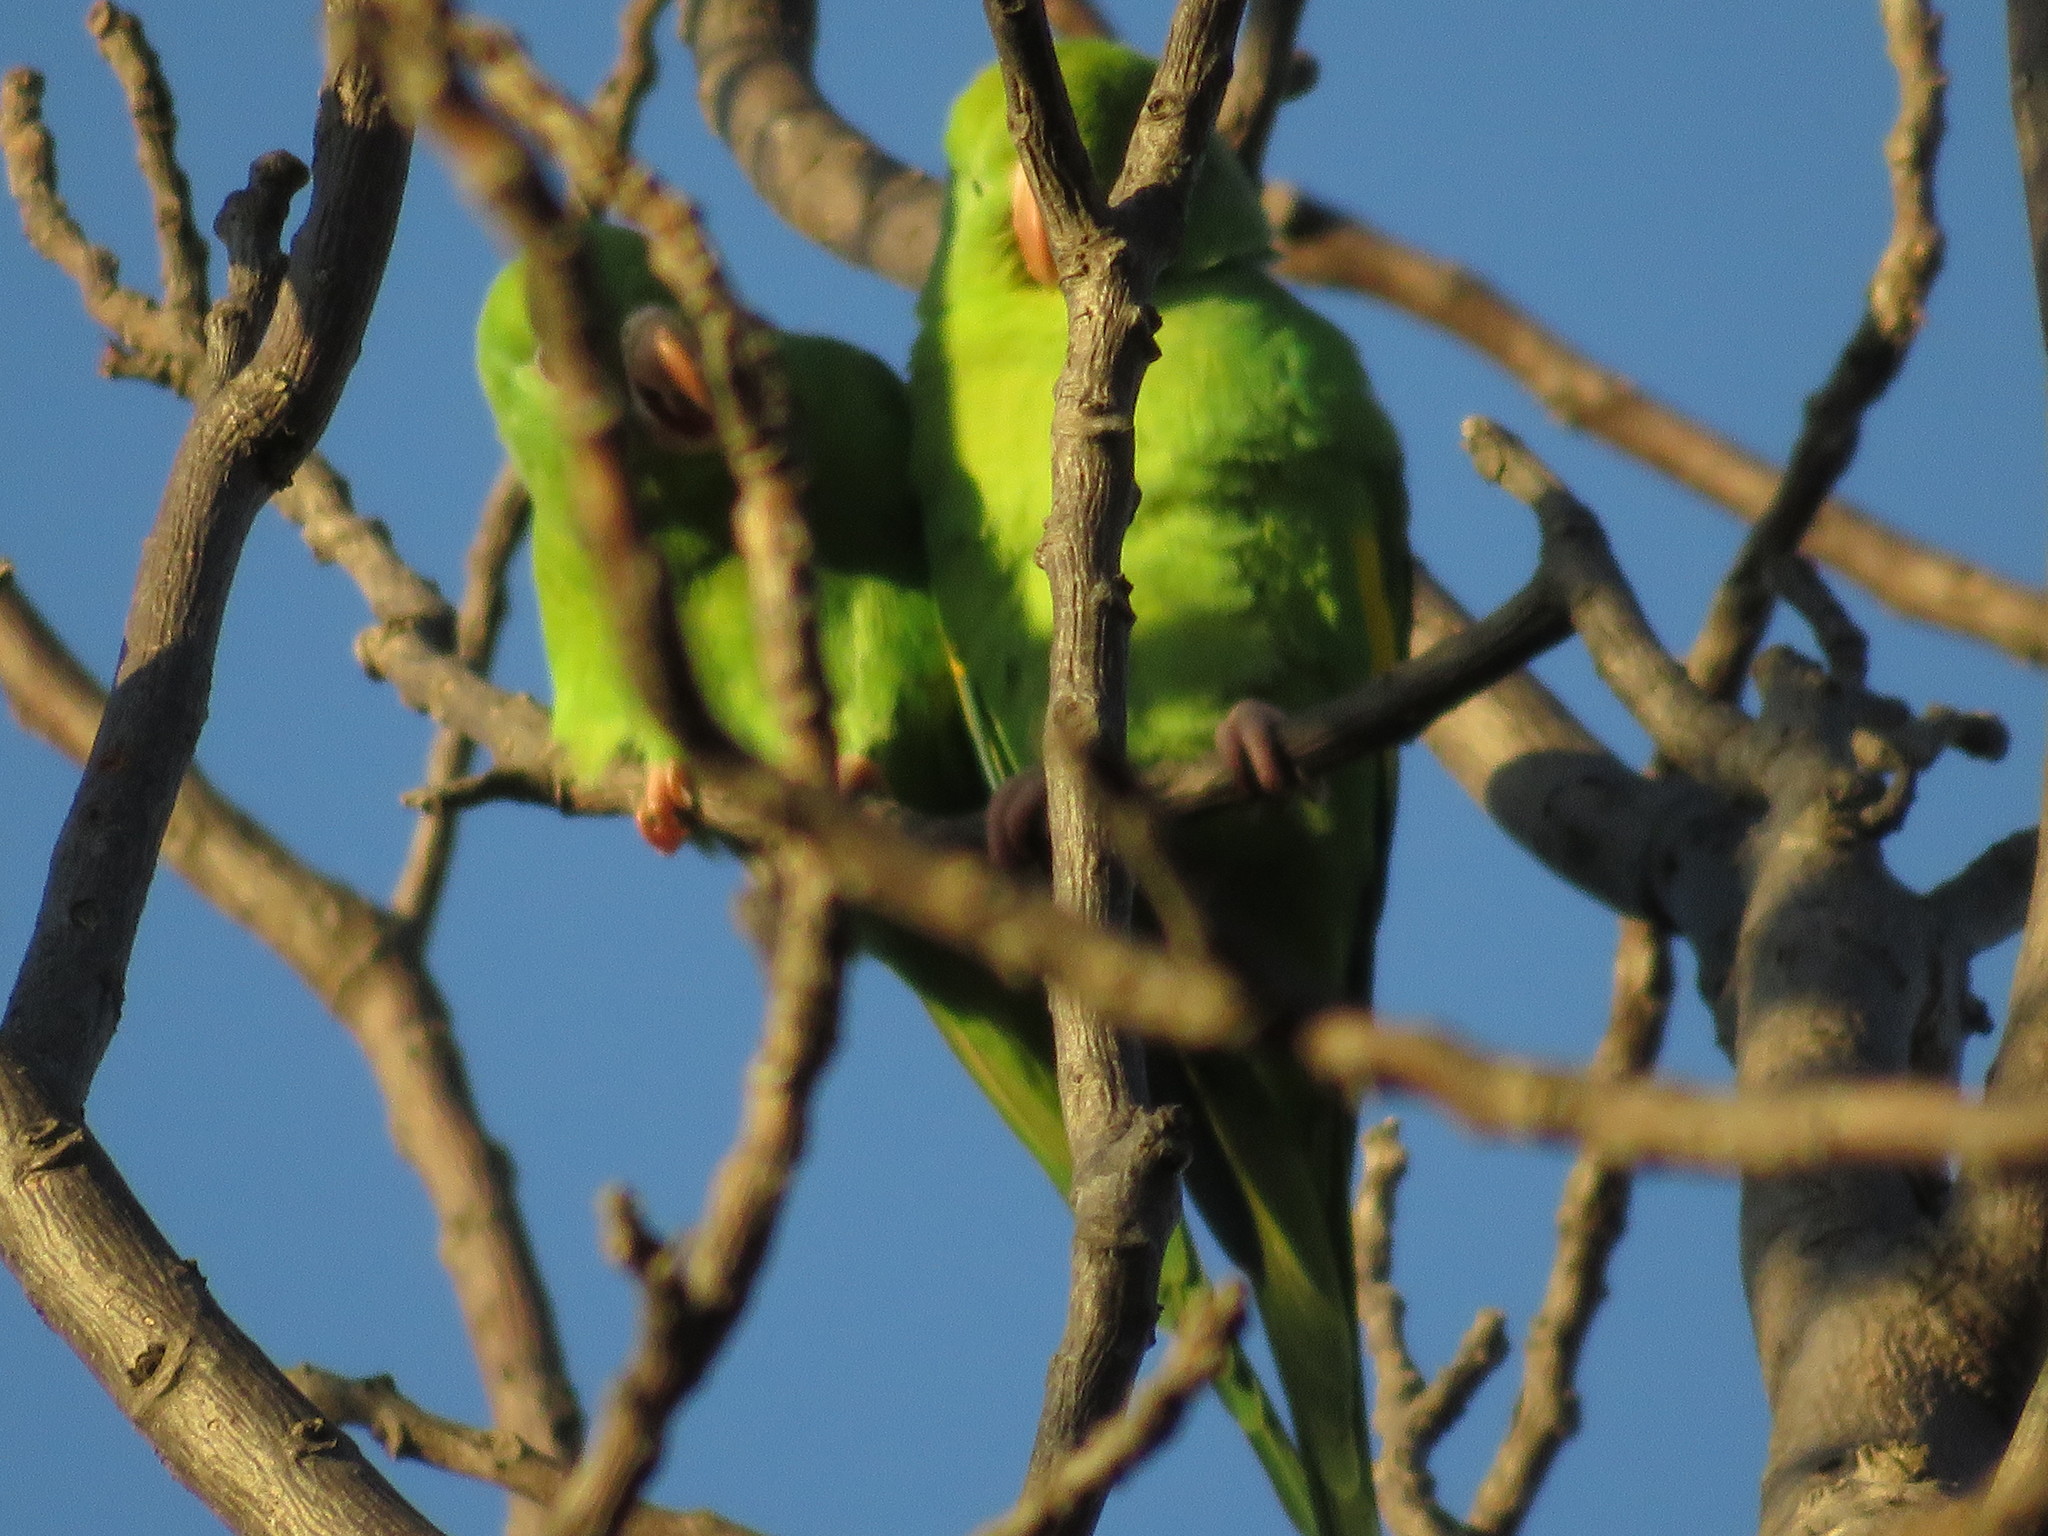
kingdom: Animalia
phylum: Chordata
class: Aves
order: Psittaciformes
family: Psittacidae
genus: Brotogeris
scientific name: Brotogeris chiriri
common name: Yellow-chevroned parakeet
